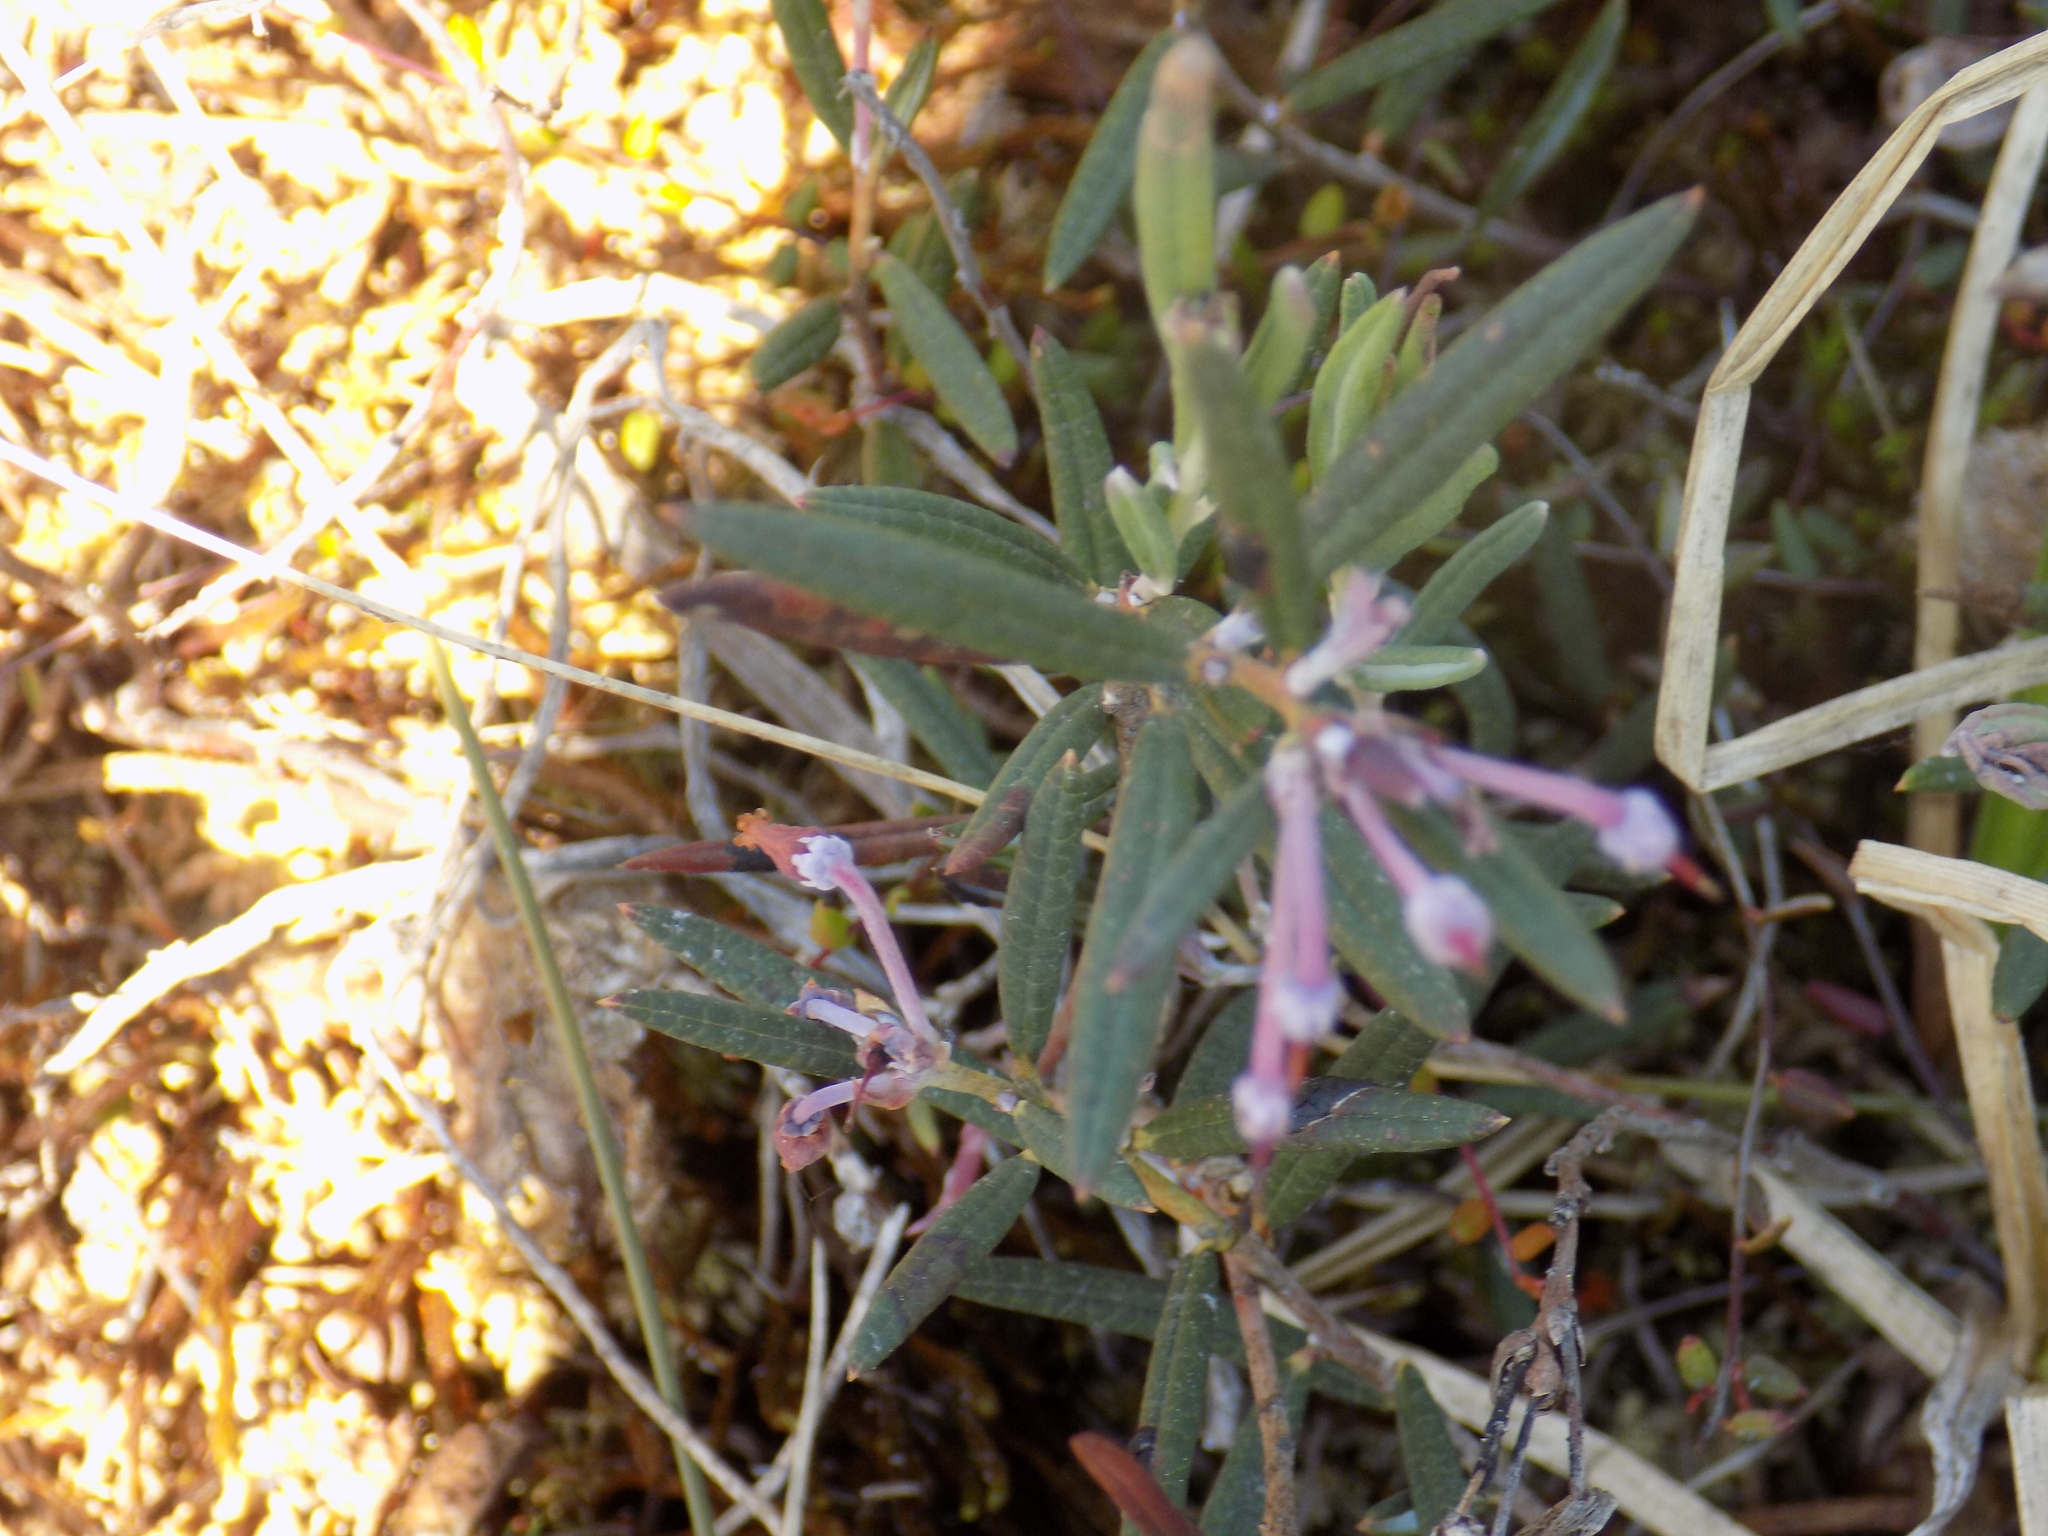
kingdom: Plantae
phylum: Tracheophyta
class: Magnoliopsida
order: Ericales
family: Ericaceae
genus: Andromeda
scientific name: Andromeda polifolia
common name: Bog-rosemary
